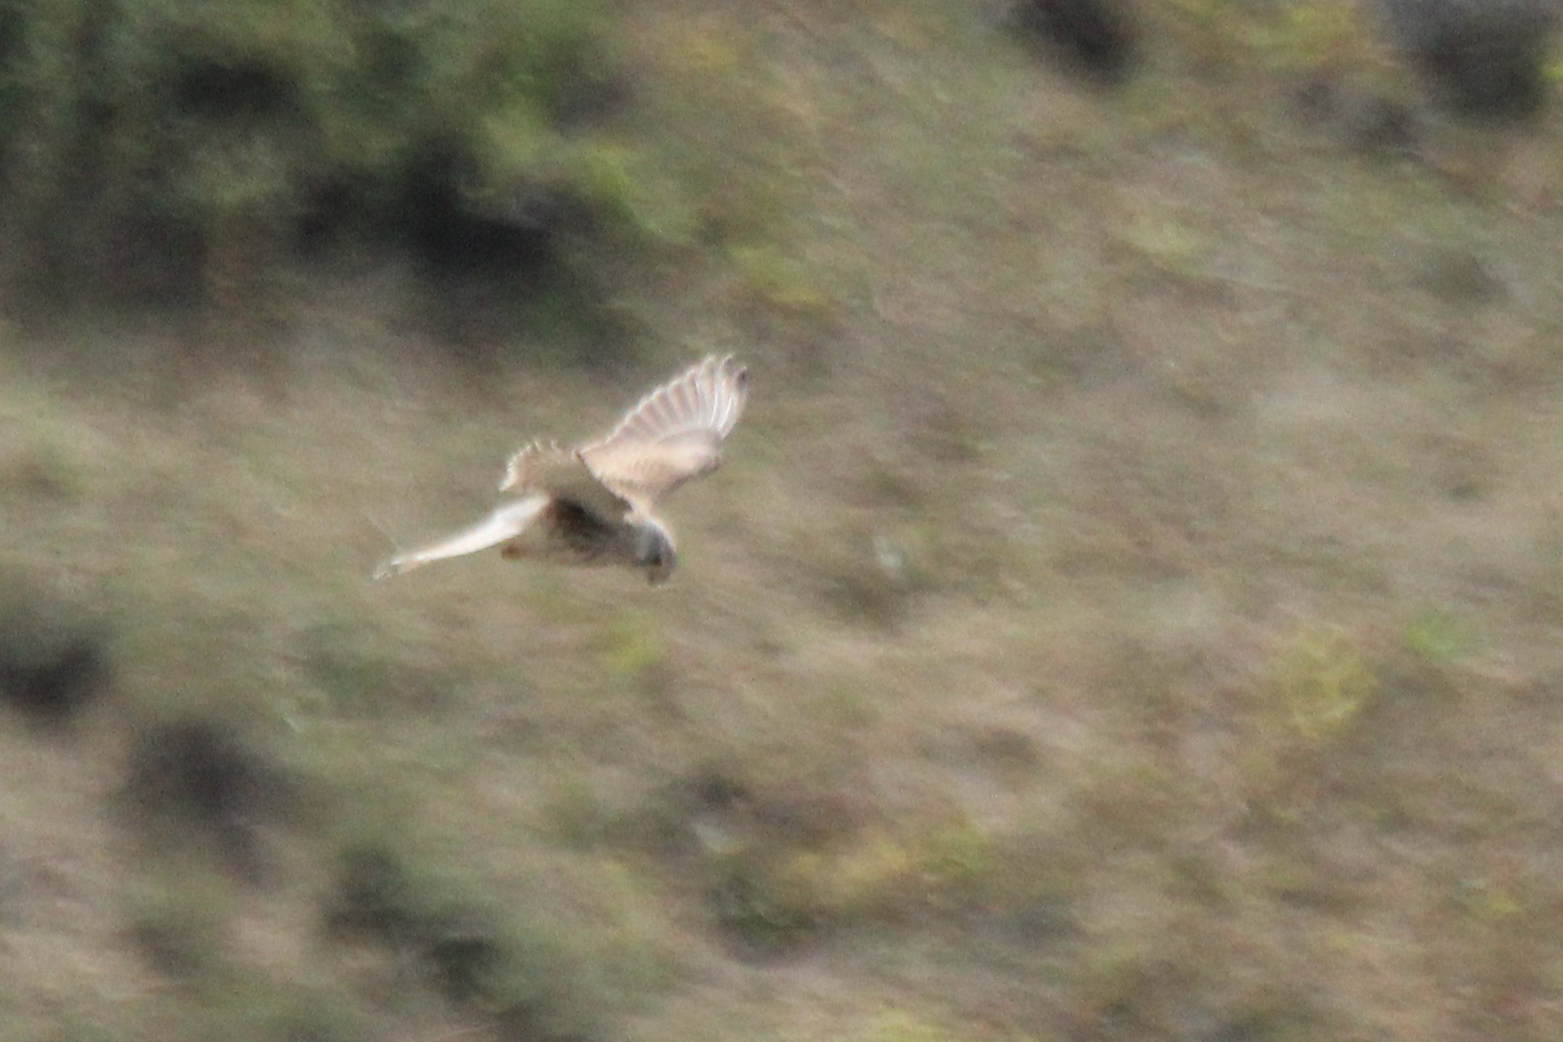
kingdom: Animalia
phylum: Chordata
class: Aves
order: Falconiformes
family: Falconidae
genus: Falco
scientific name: Falco tinnunculus
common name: Common kestrel
